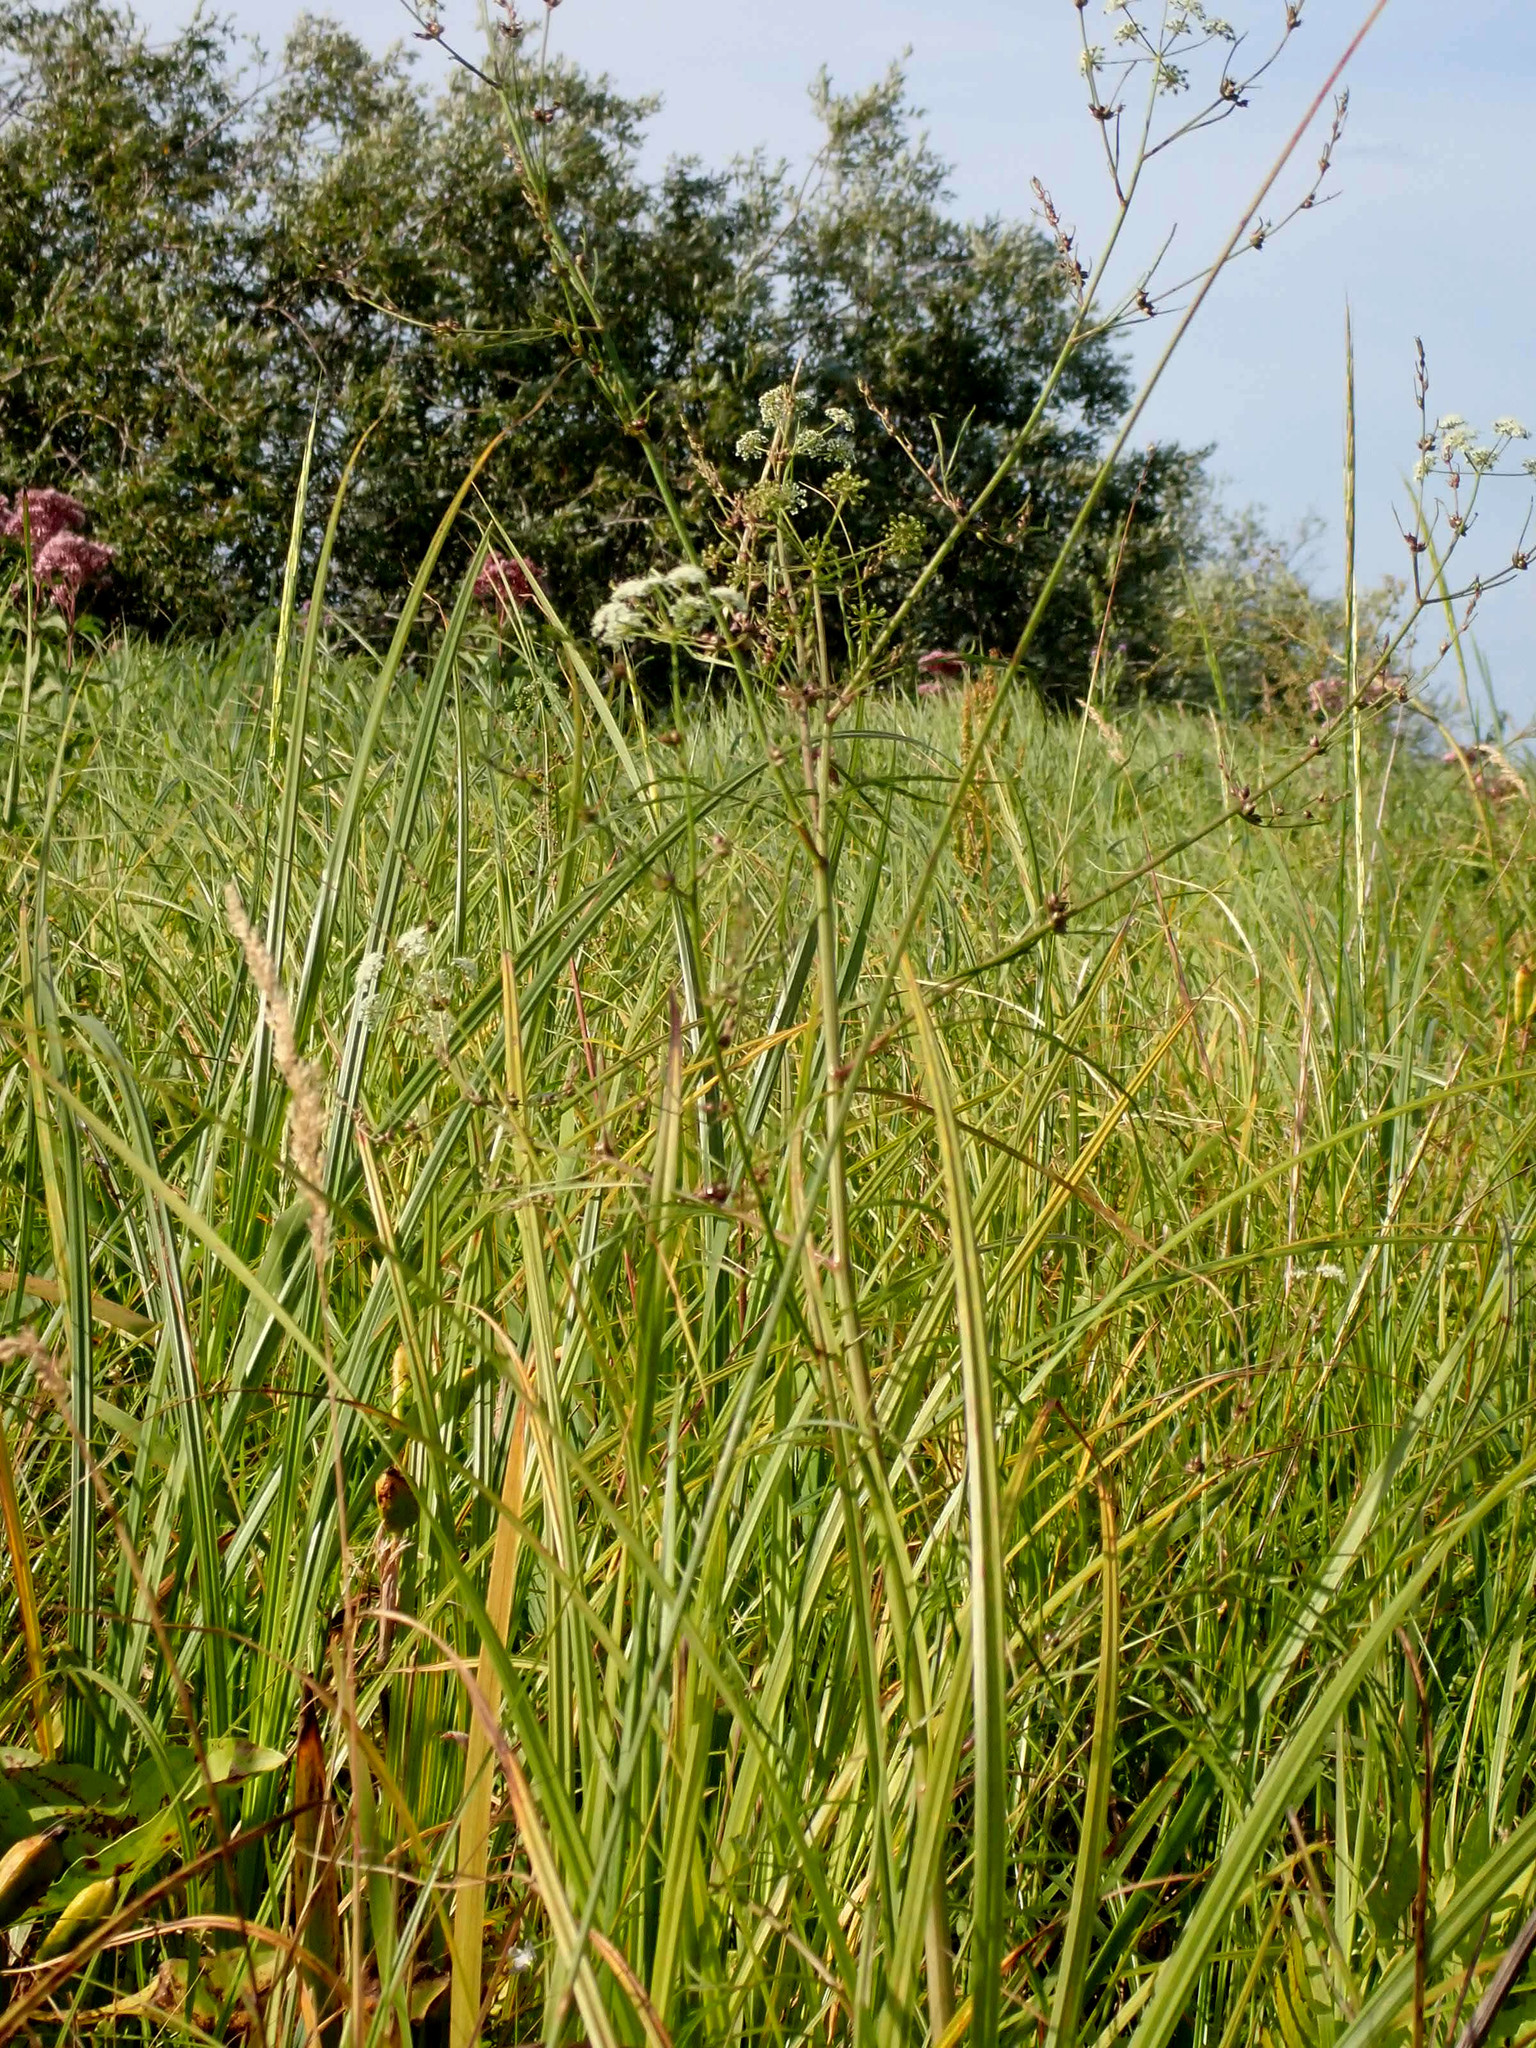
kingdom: Plantae
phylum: Tracheophyta
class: Magnoliopsida
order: Apiales
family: Apiaceae
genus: Sium
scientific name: Sium suave
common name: Hemlock water-parsnip
